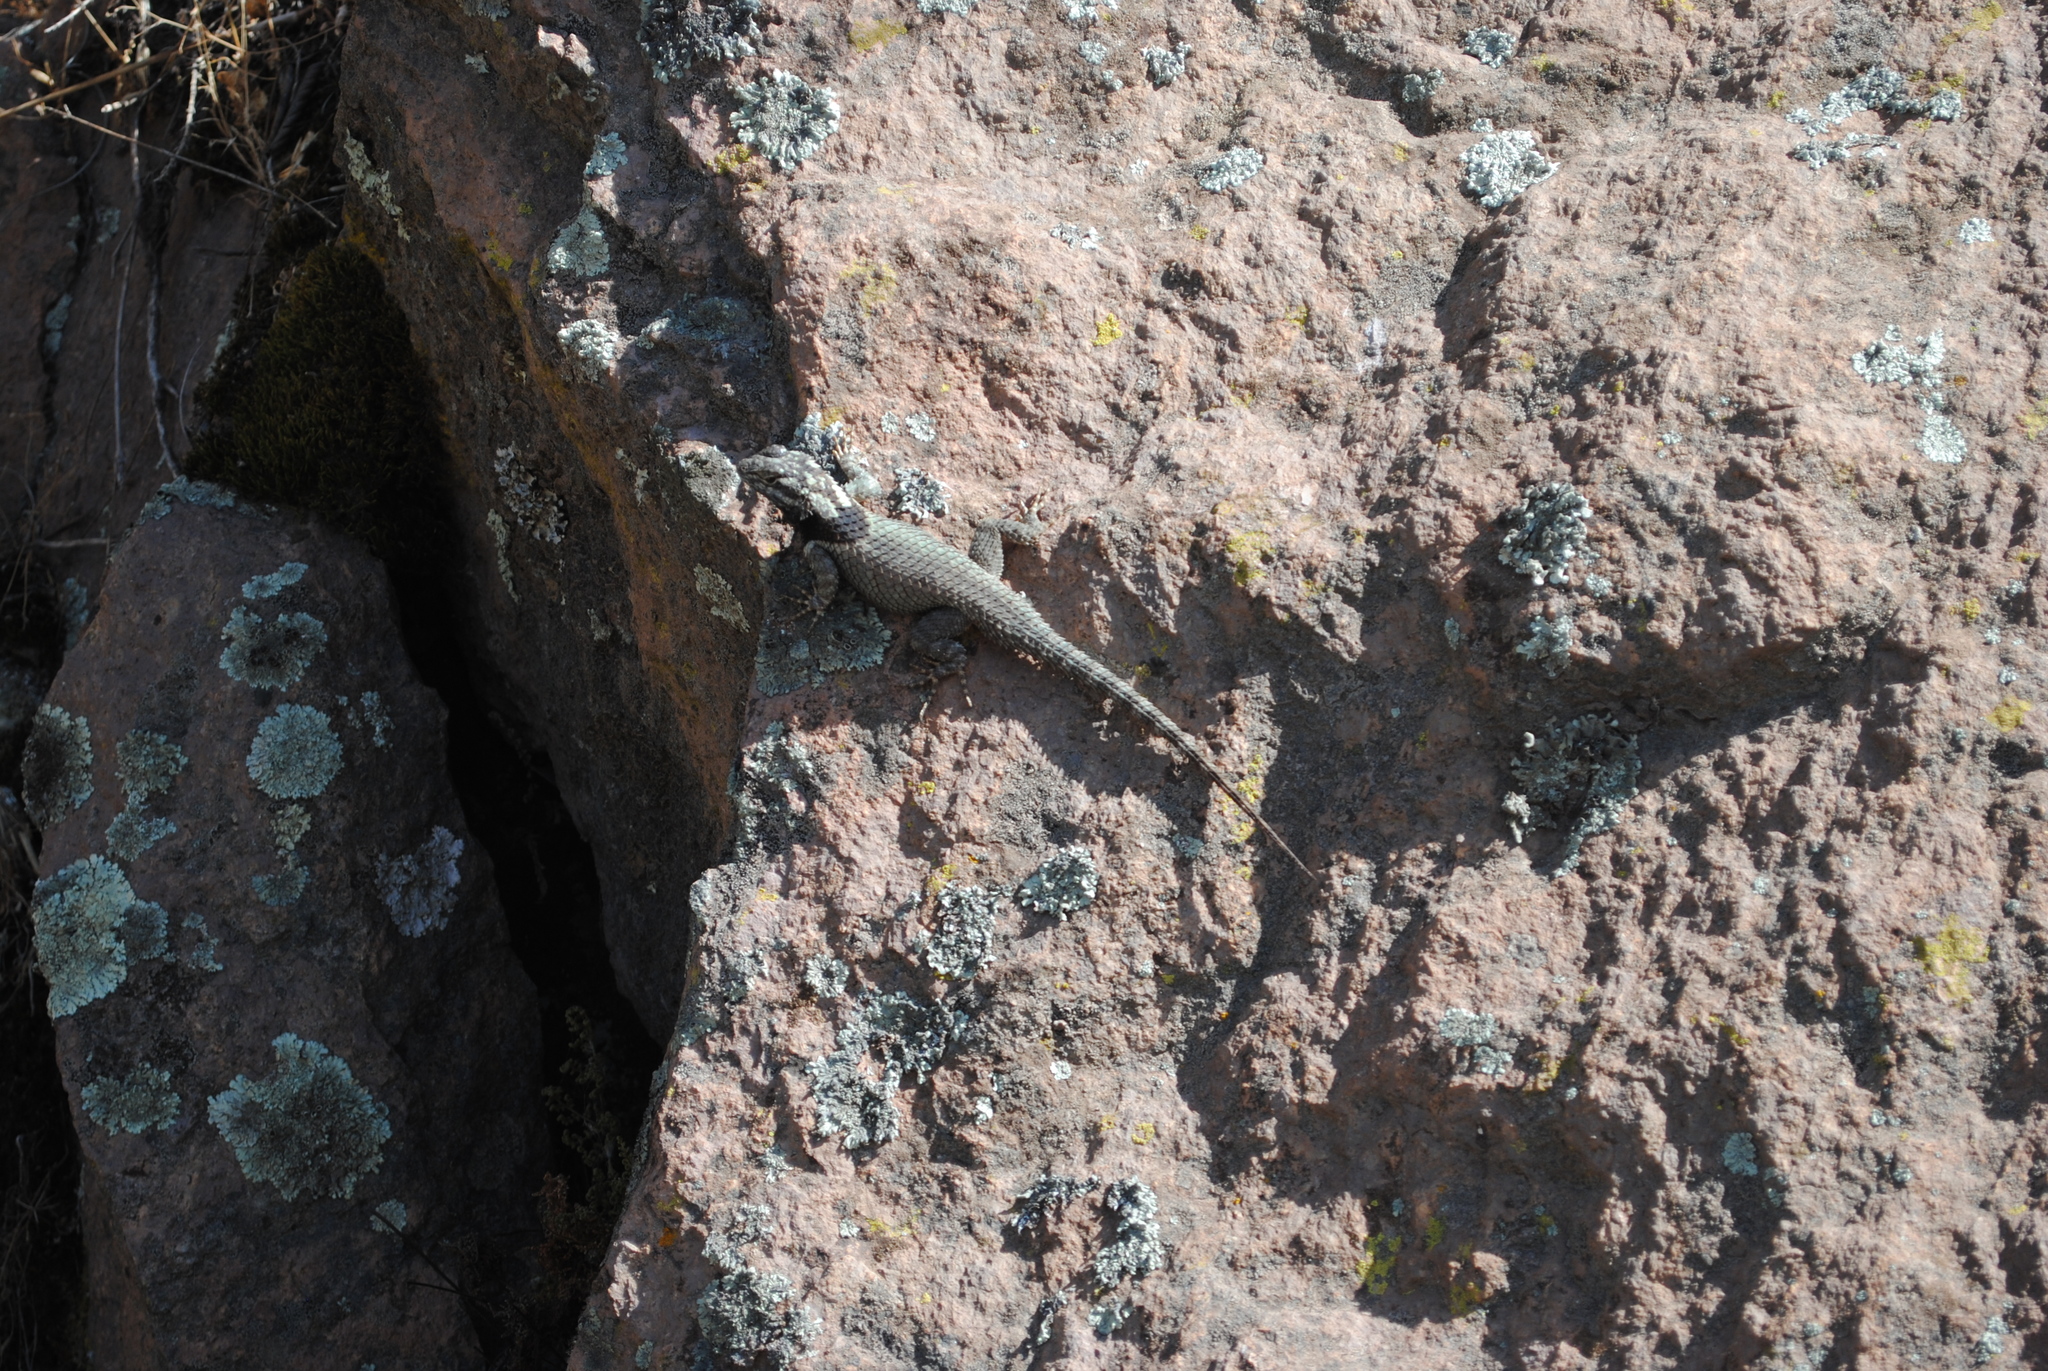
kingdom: Animalia
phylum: Chordata
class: Squamata
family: Phrynosomatidae
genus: Sceloporus
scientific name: Sceloporus torquatus
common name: Central plateau torquate lizard [melanogaster]
